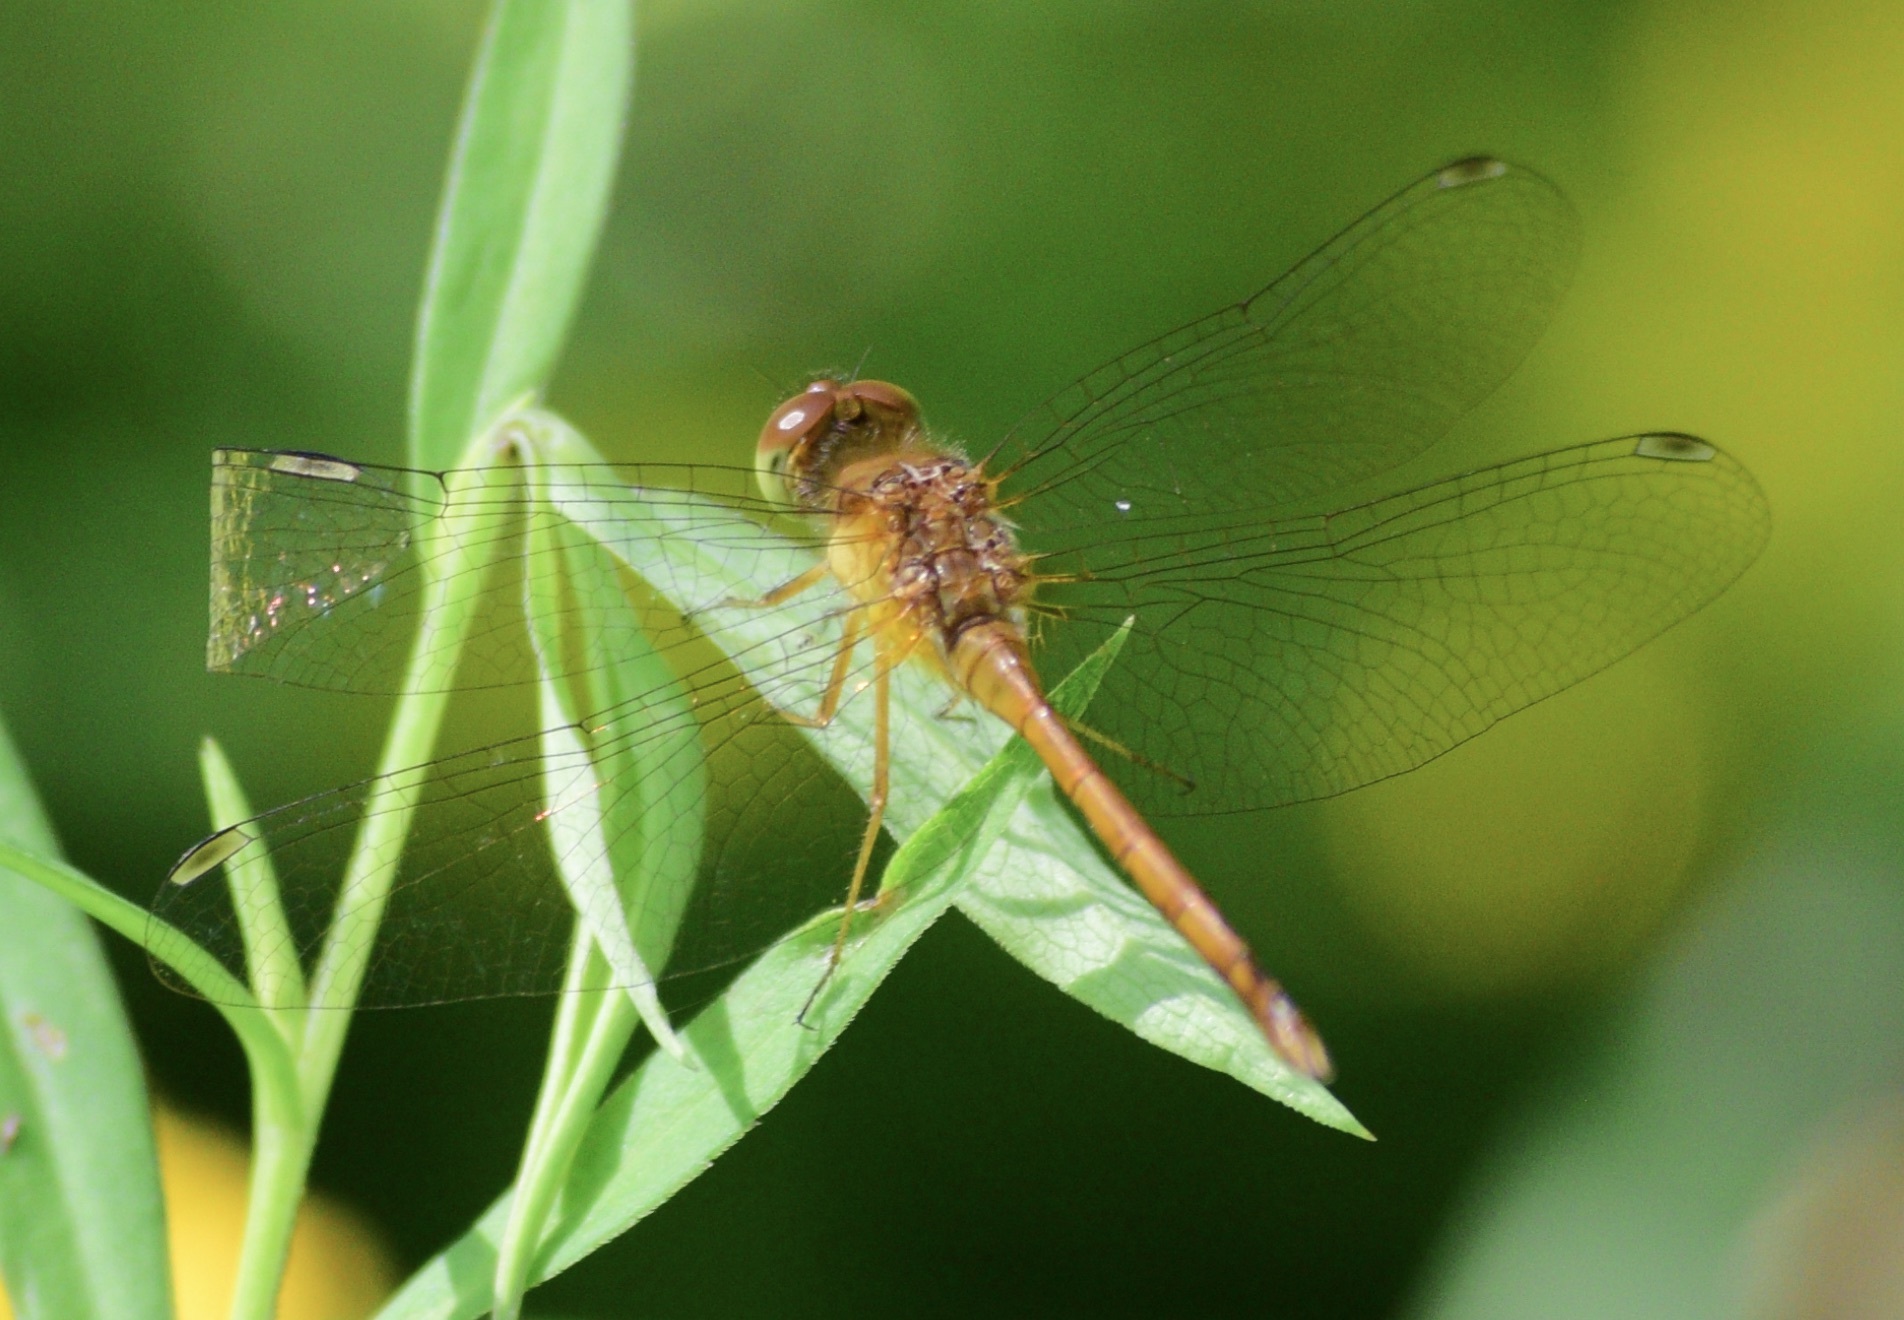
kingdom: Animalia
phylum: Arthropoda
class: Insecta
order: Odonata
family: Libellulidae
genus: Sympetrum
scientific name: Sympetrum vicinum
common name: Autumn meadowhawk
